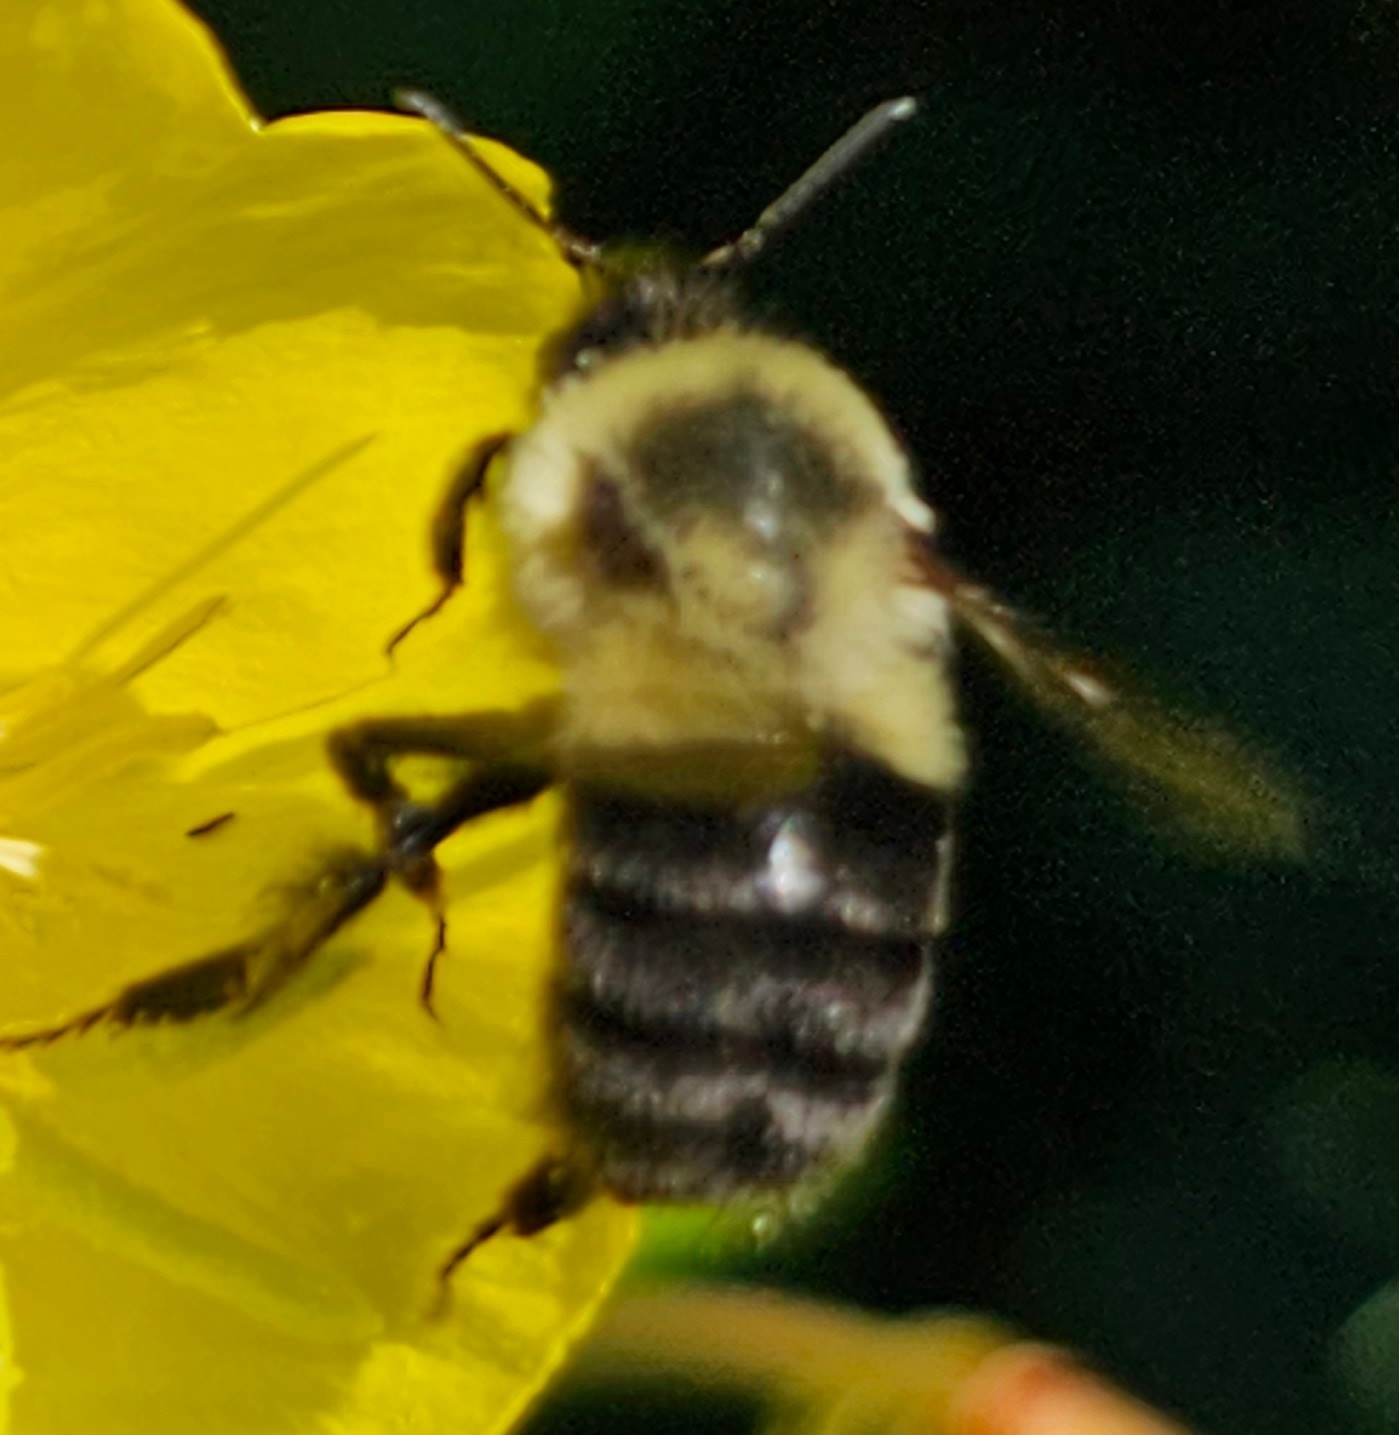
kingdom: Animalia
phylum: Arthropoda
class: Insecta
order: Hymenoptera
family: Apidae
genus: Bombus
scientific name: Bombus impatiens
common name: Common eastern bumble bee
